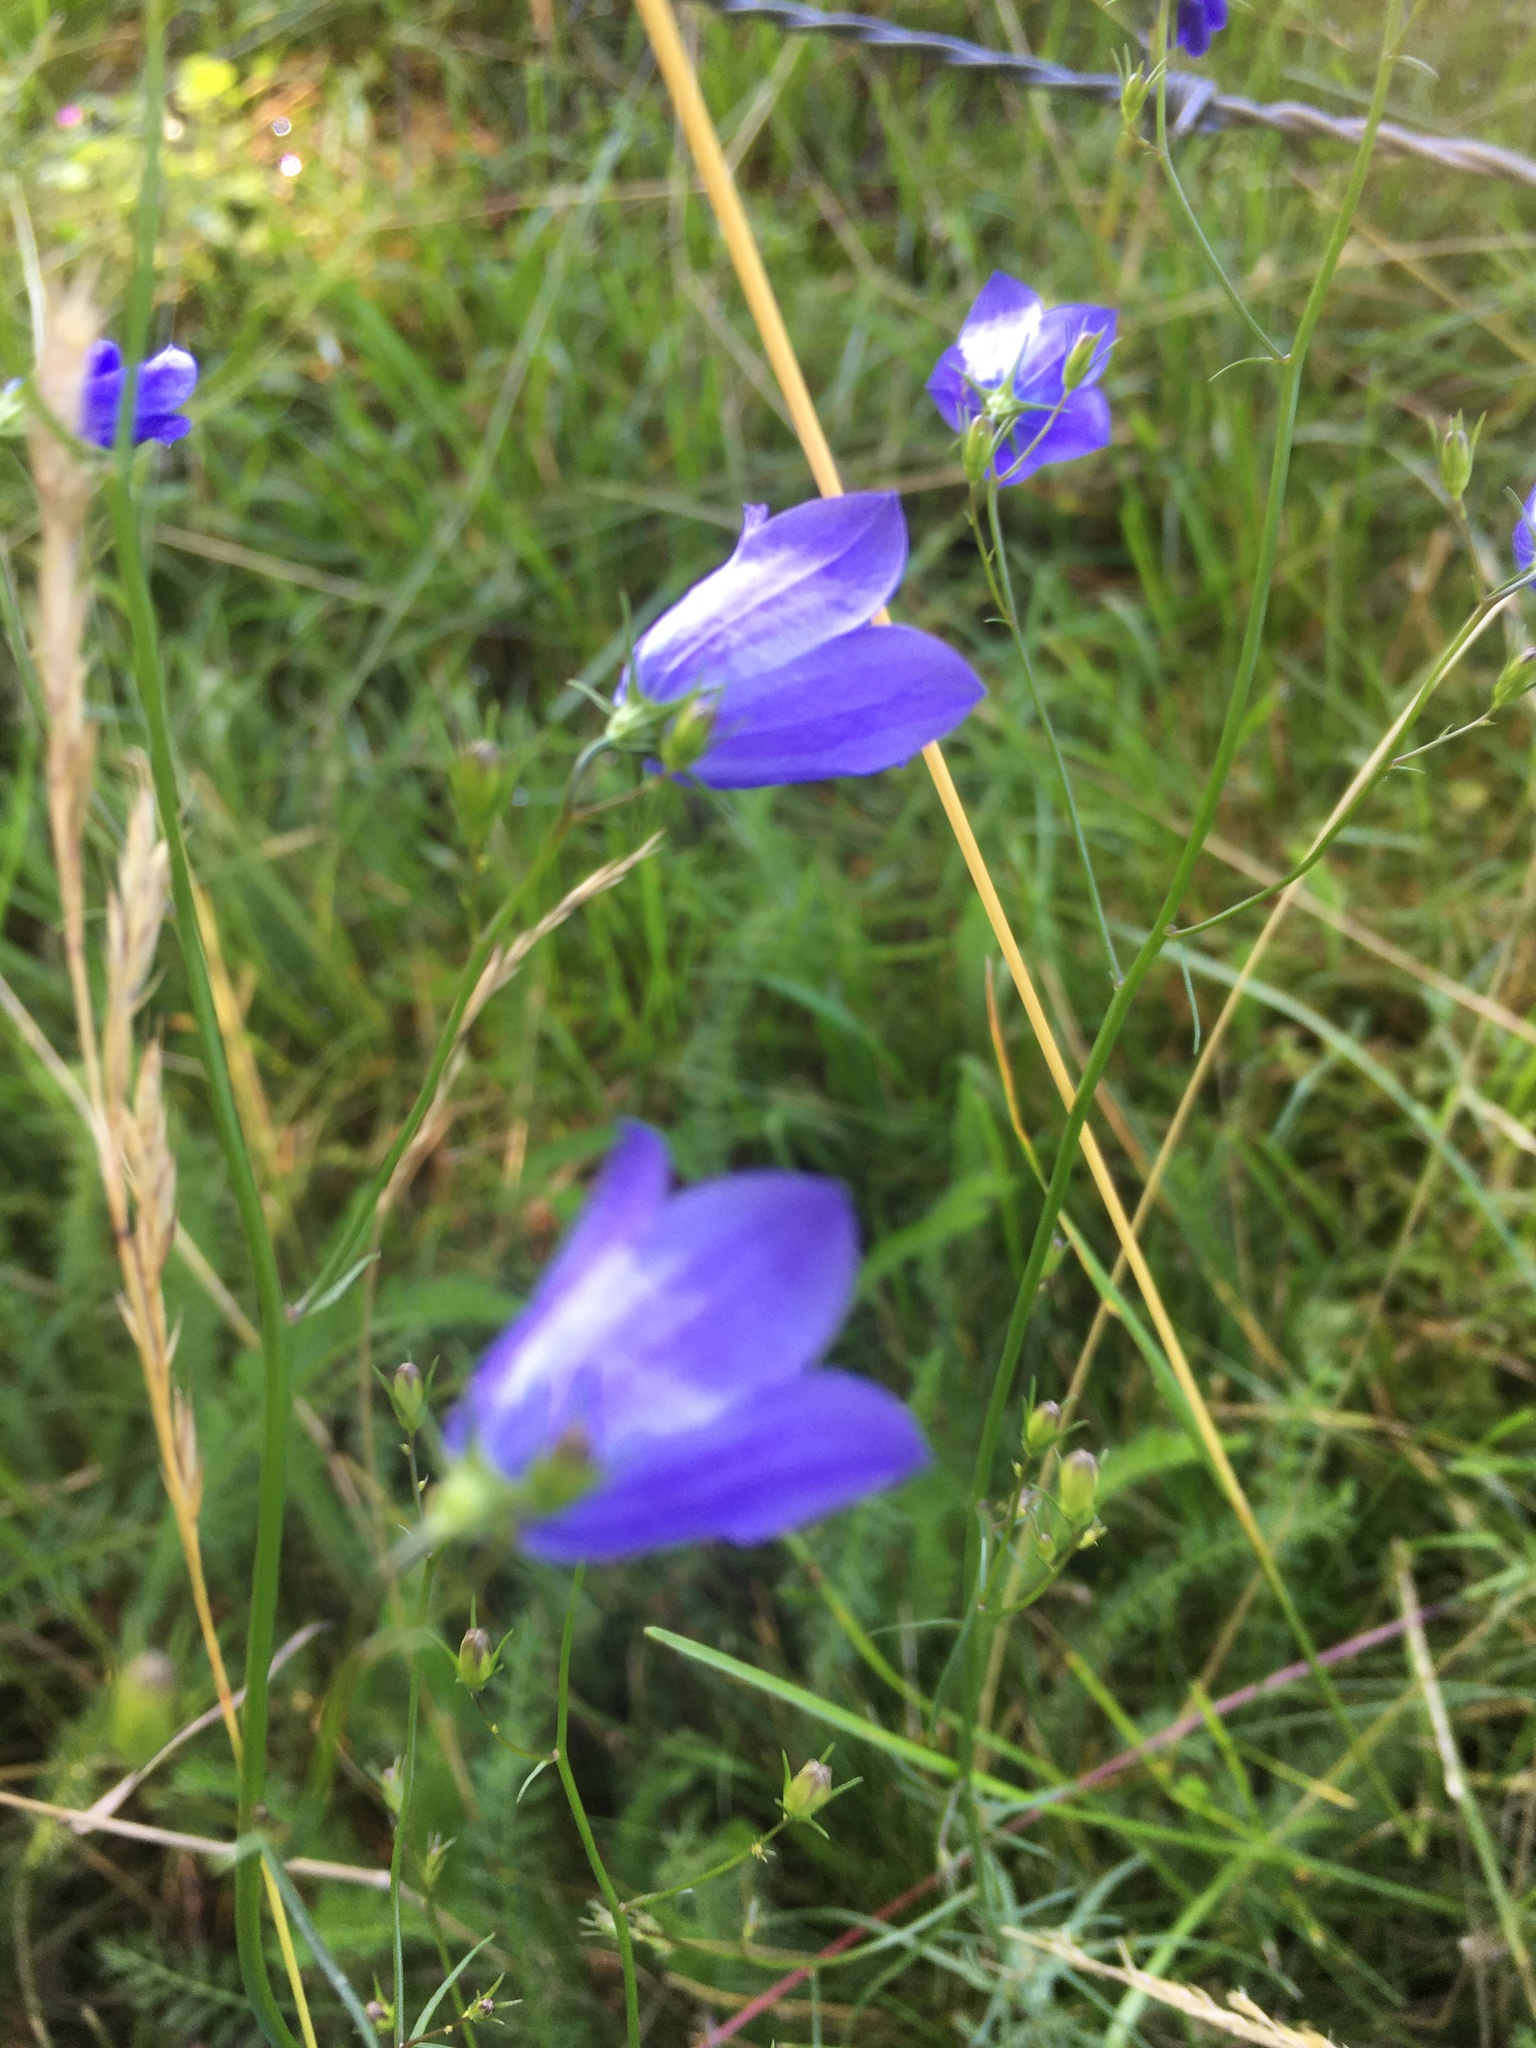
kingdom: Plantae
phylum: Tracheophyta
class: Magnoliopsida
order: Asterales
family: Campanulaceae
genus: Campanula
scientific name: Campanula rotundifolia
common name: Harebell
